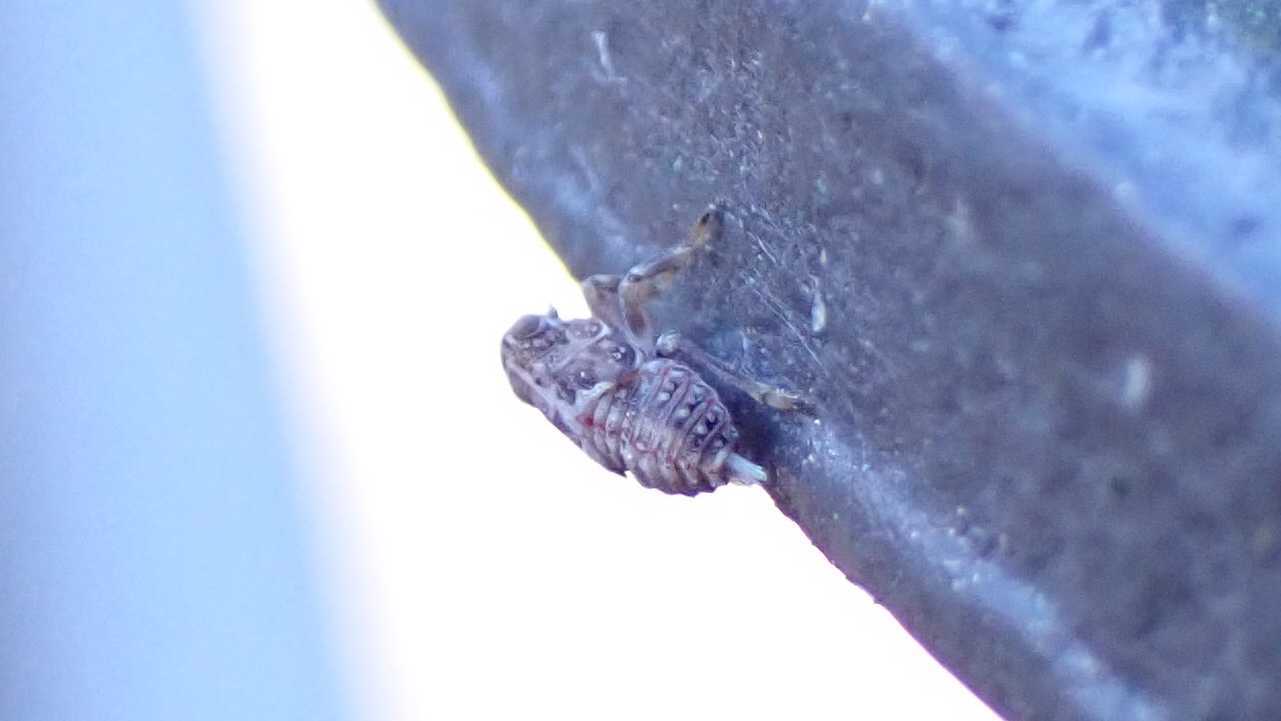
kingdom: Animalia
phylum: Arthropoda
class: Insecta
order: Hemiptera
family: Issidae
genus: Issus
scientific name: Issus
